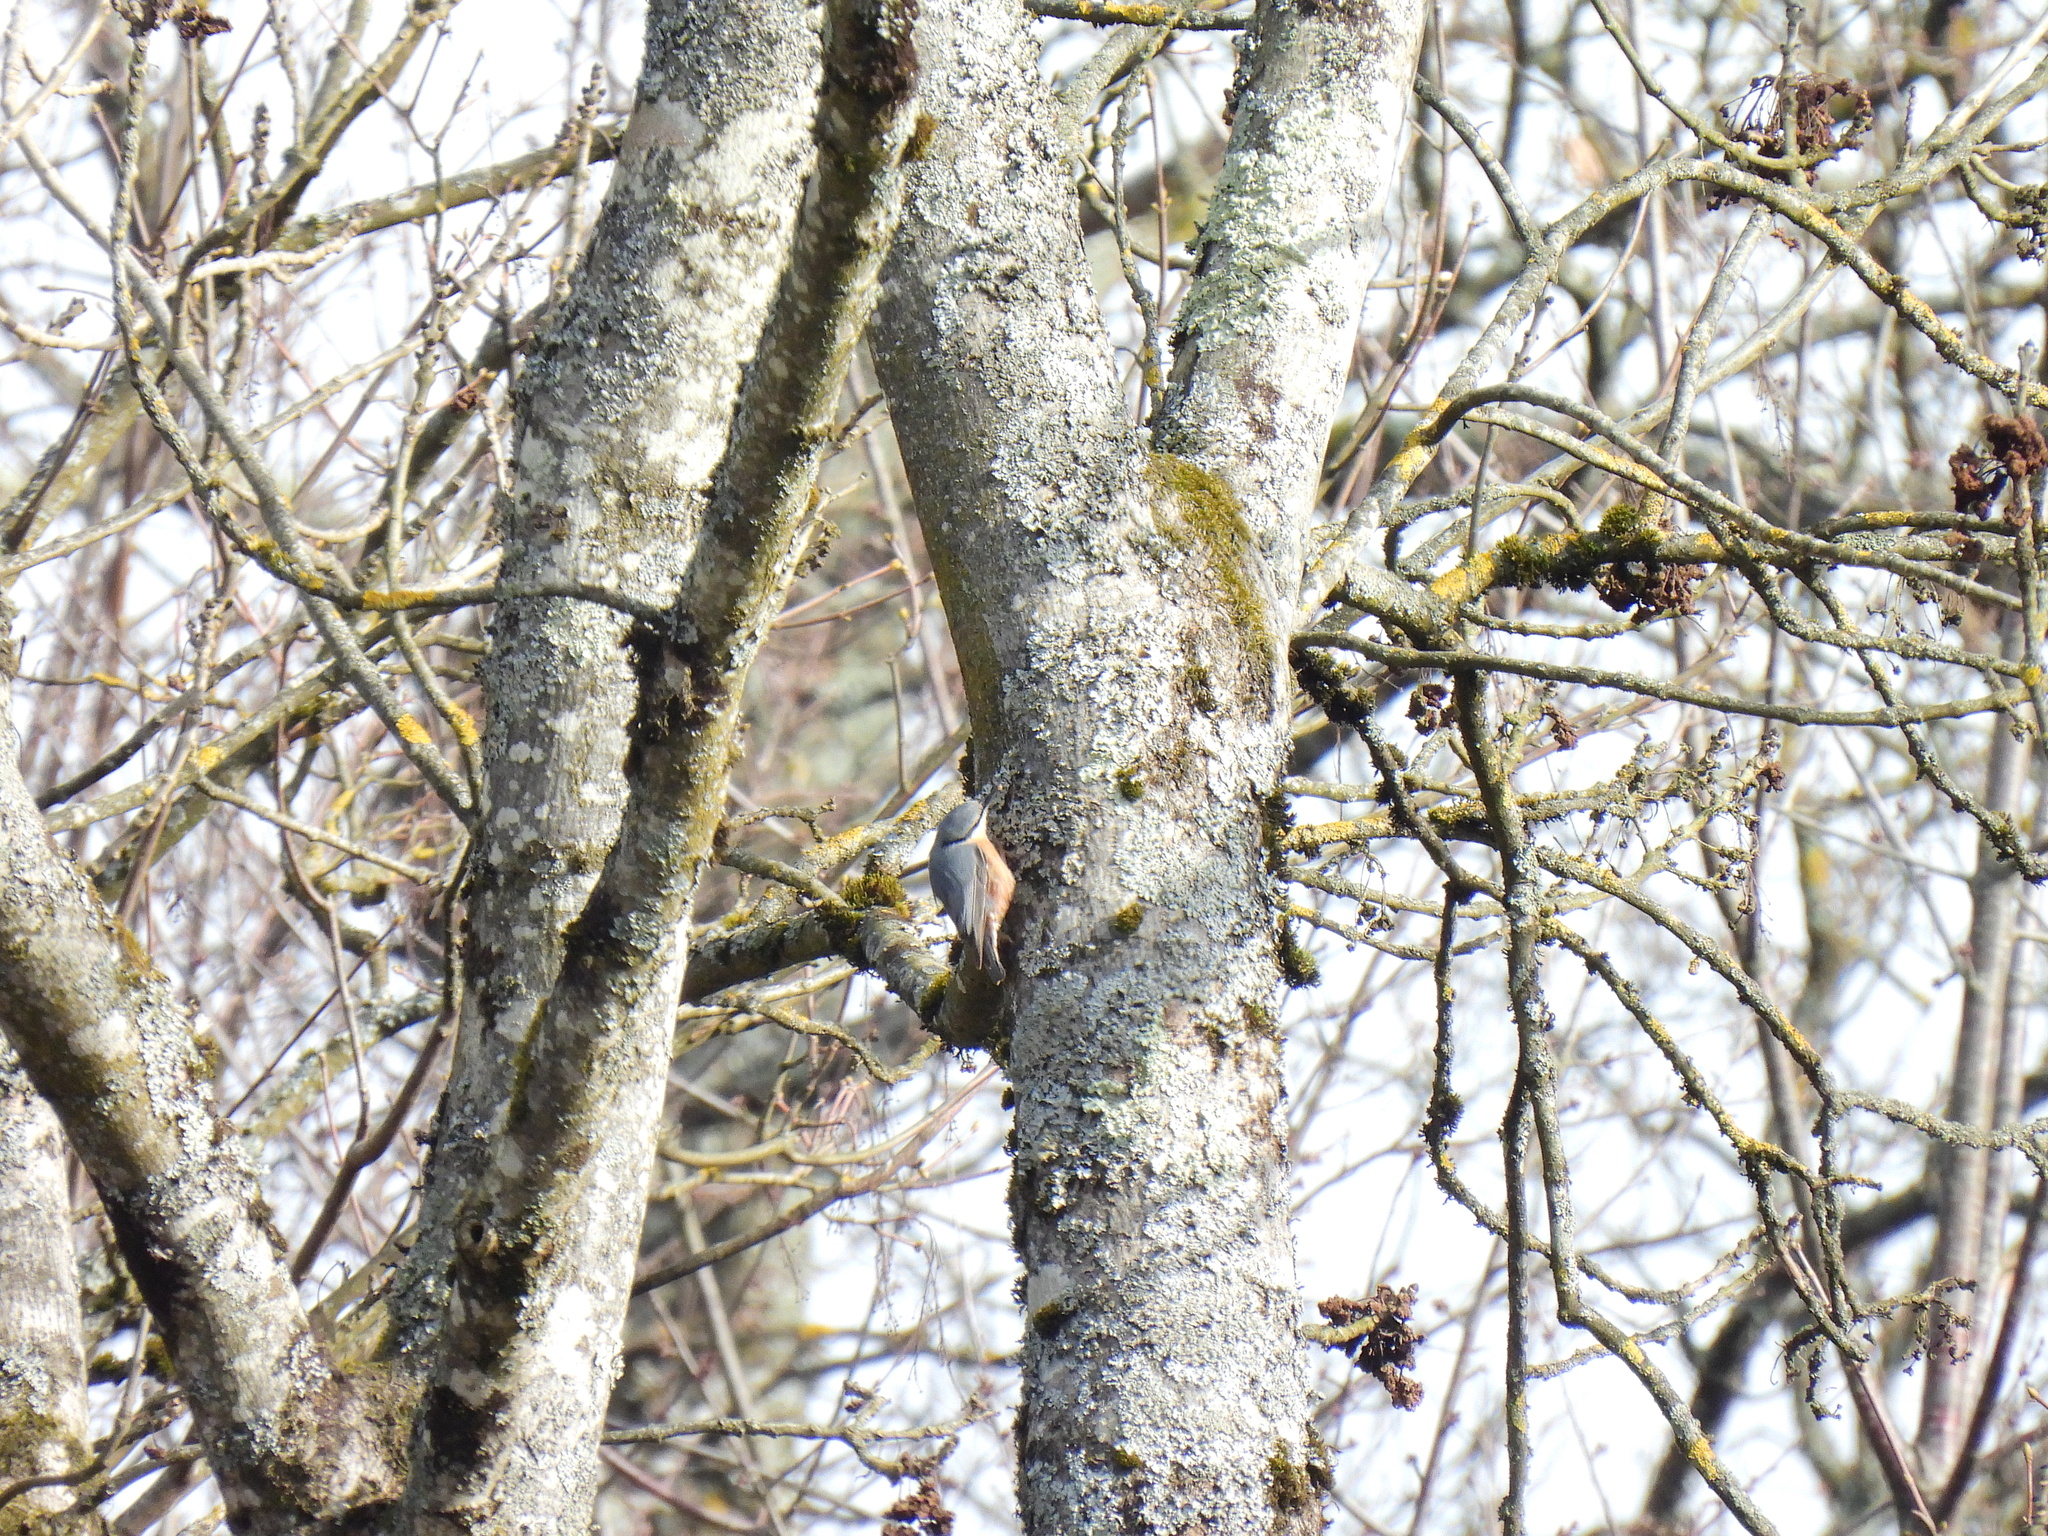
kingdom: Animalia
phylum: Chordata
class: Aves
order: Passeriformes
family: Sittidae
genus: Sitta
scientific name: Sitta europaea
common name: Eurasian nuthatch
